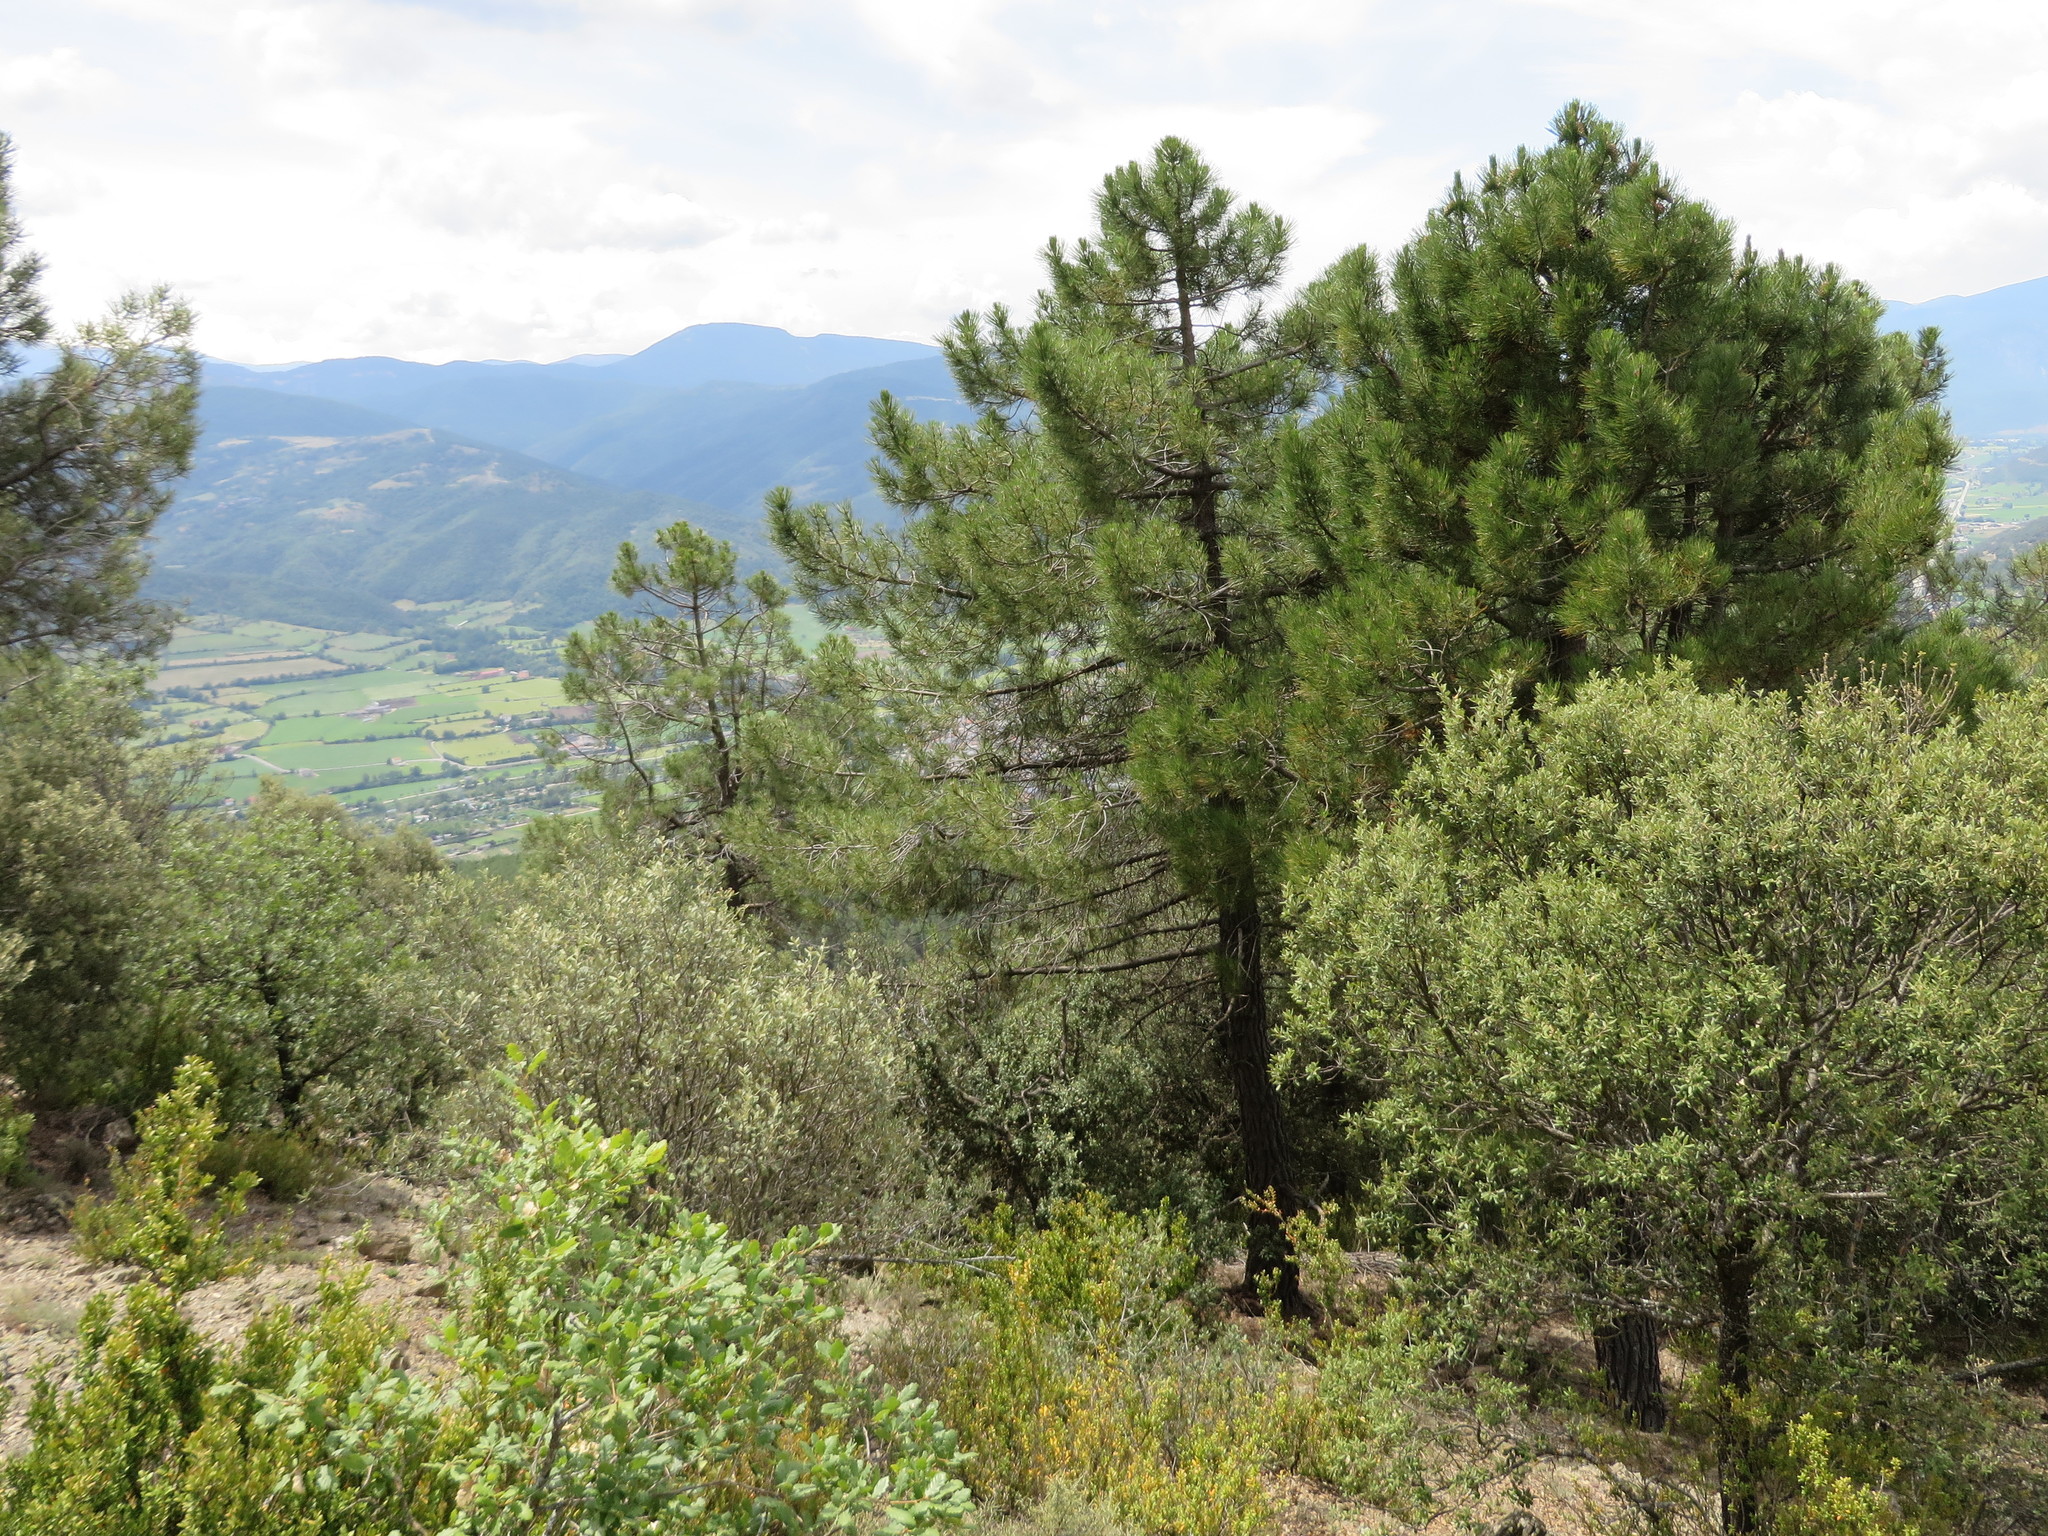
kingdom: Plantae
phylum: Tracheophyta
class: Pinopsida
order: Pinales
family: Pinaceae
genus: Pinus
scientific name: Pinus pinaster
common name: Maritime pine
